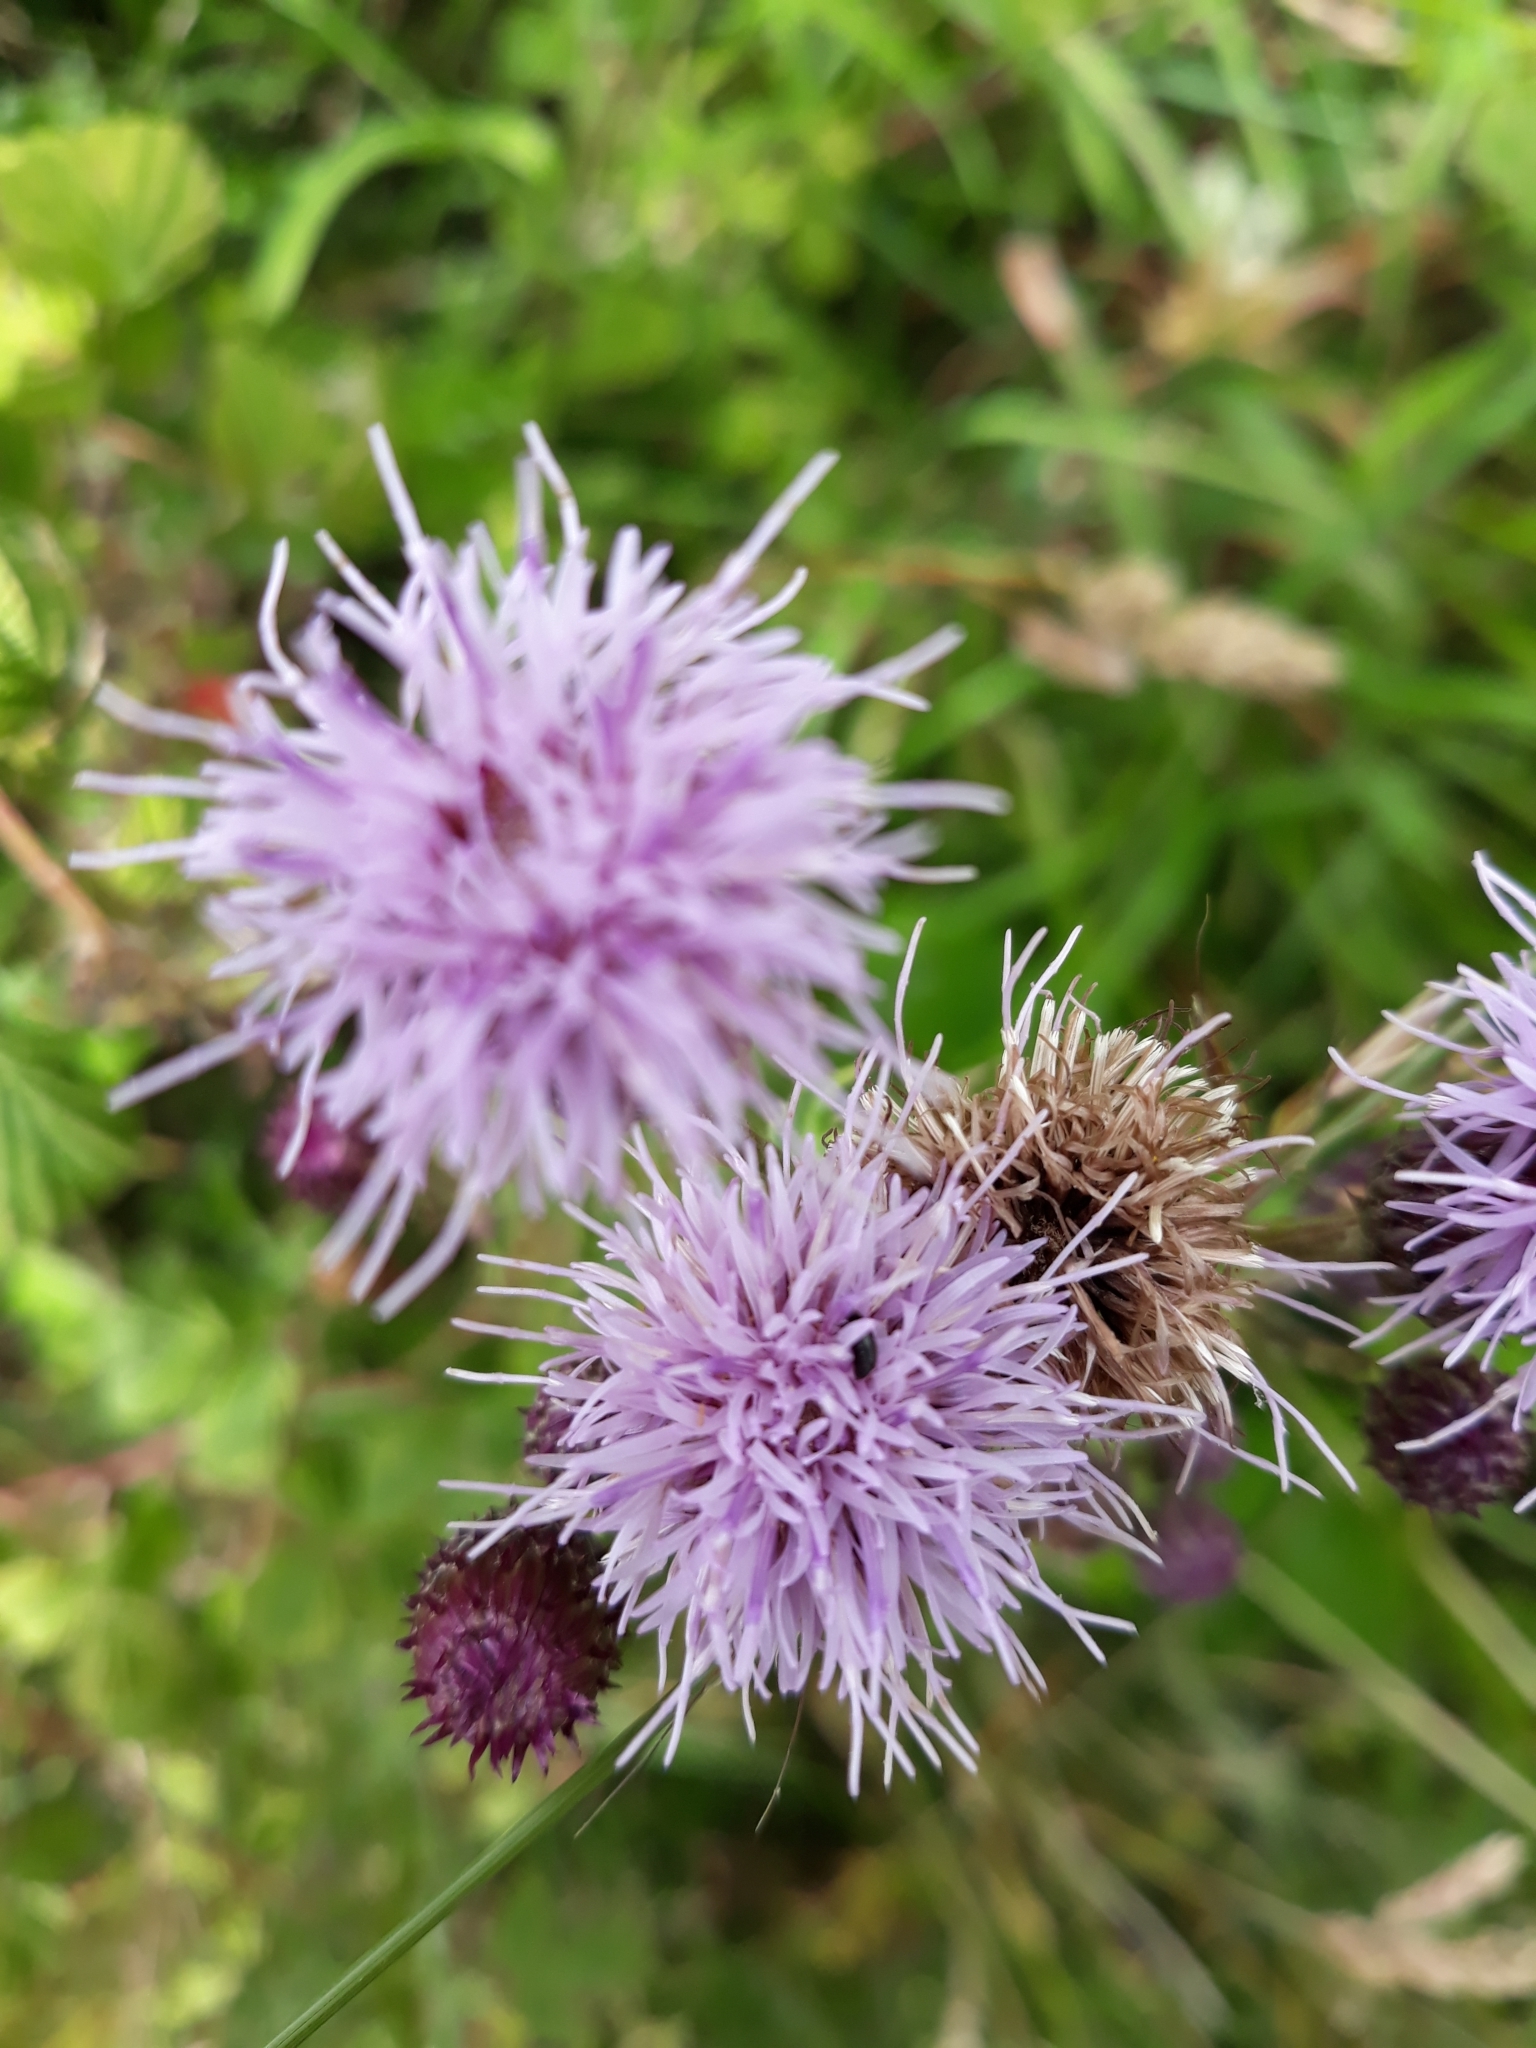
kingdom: Plantae
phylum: Tracheophyta
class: Magnoliopsida
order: Asterales
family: Asteraceae
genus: Cirsium
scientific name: Cirsium arvense
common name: Creeping thistle
